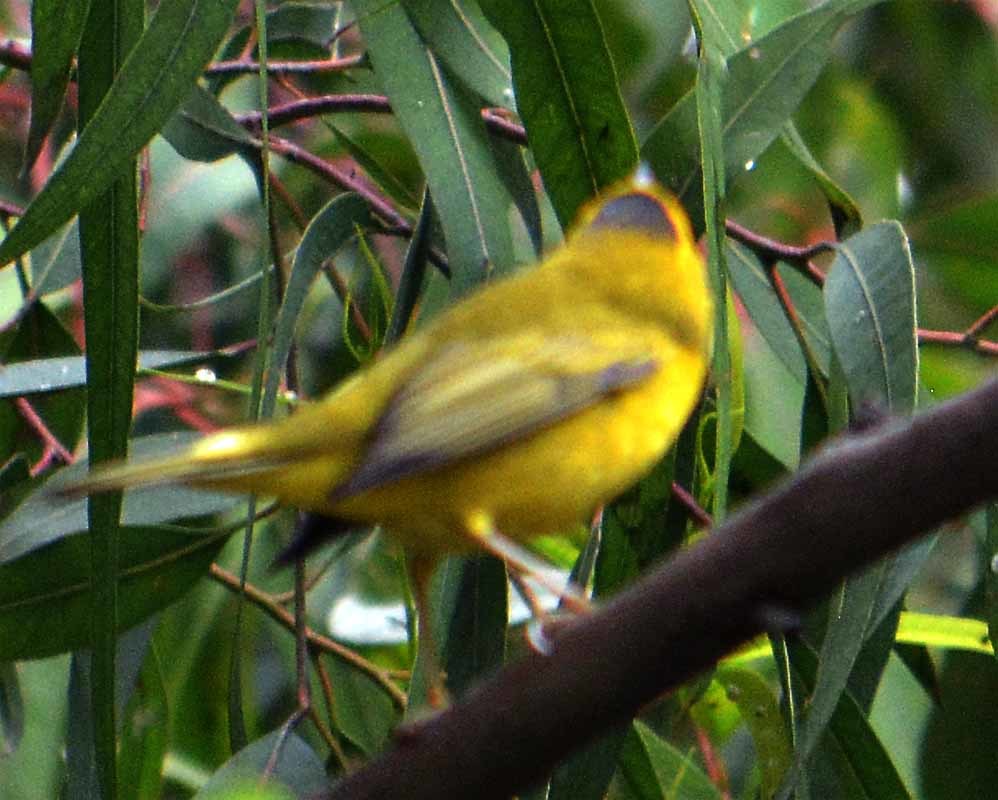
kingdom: Animalia
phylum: Chordata
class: Aves
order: Passeriformes
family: Parulidae
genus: Cardellina
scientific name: Cardellina pusilla
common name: Wilson's warbler
